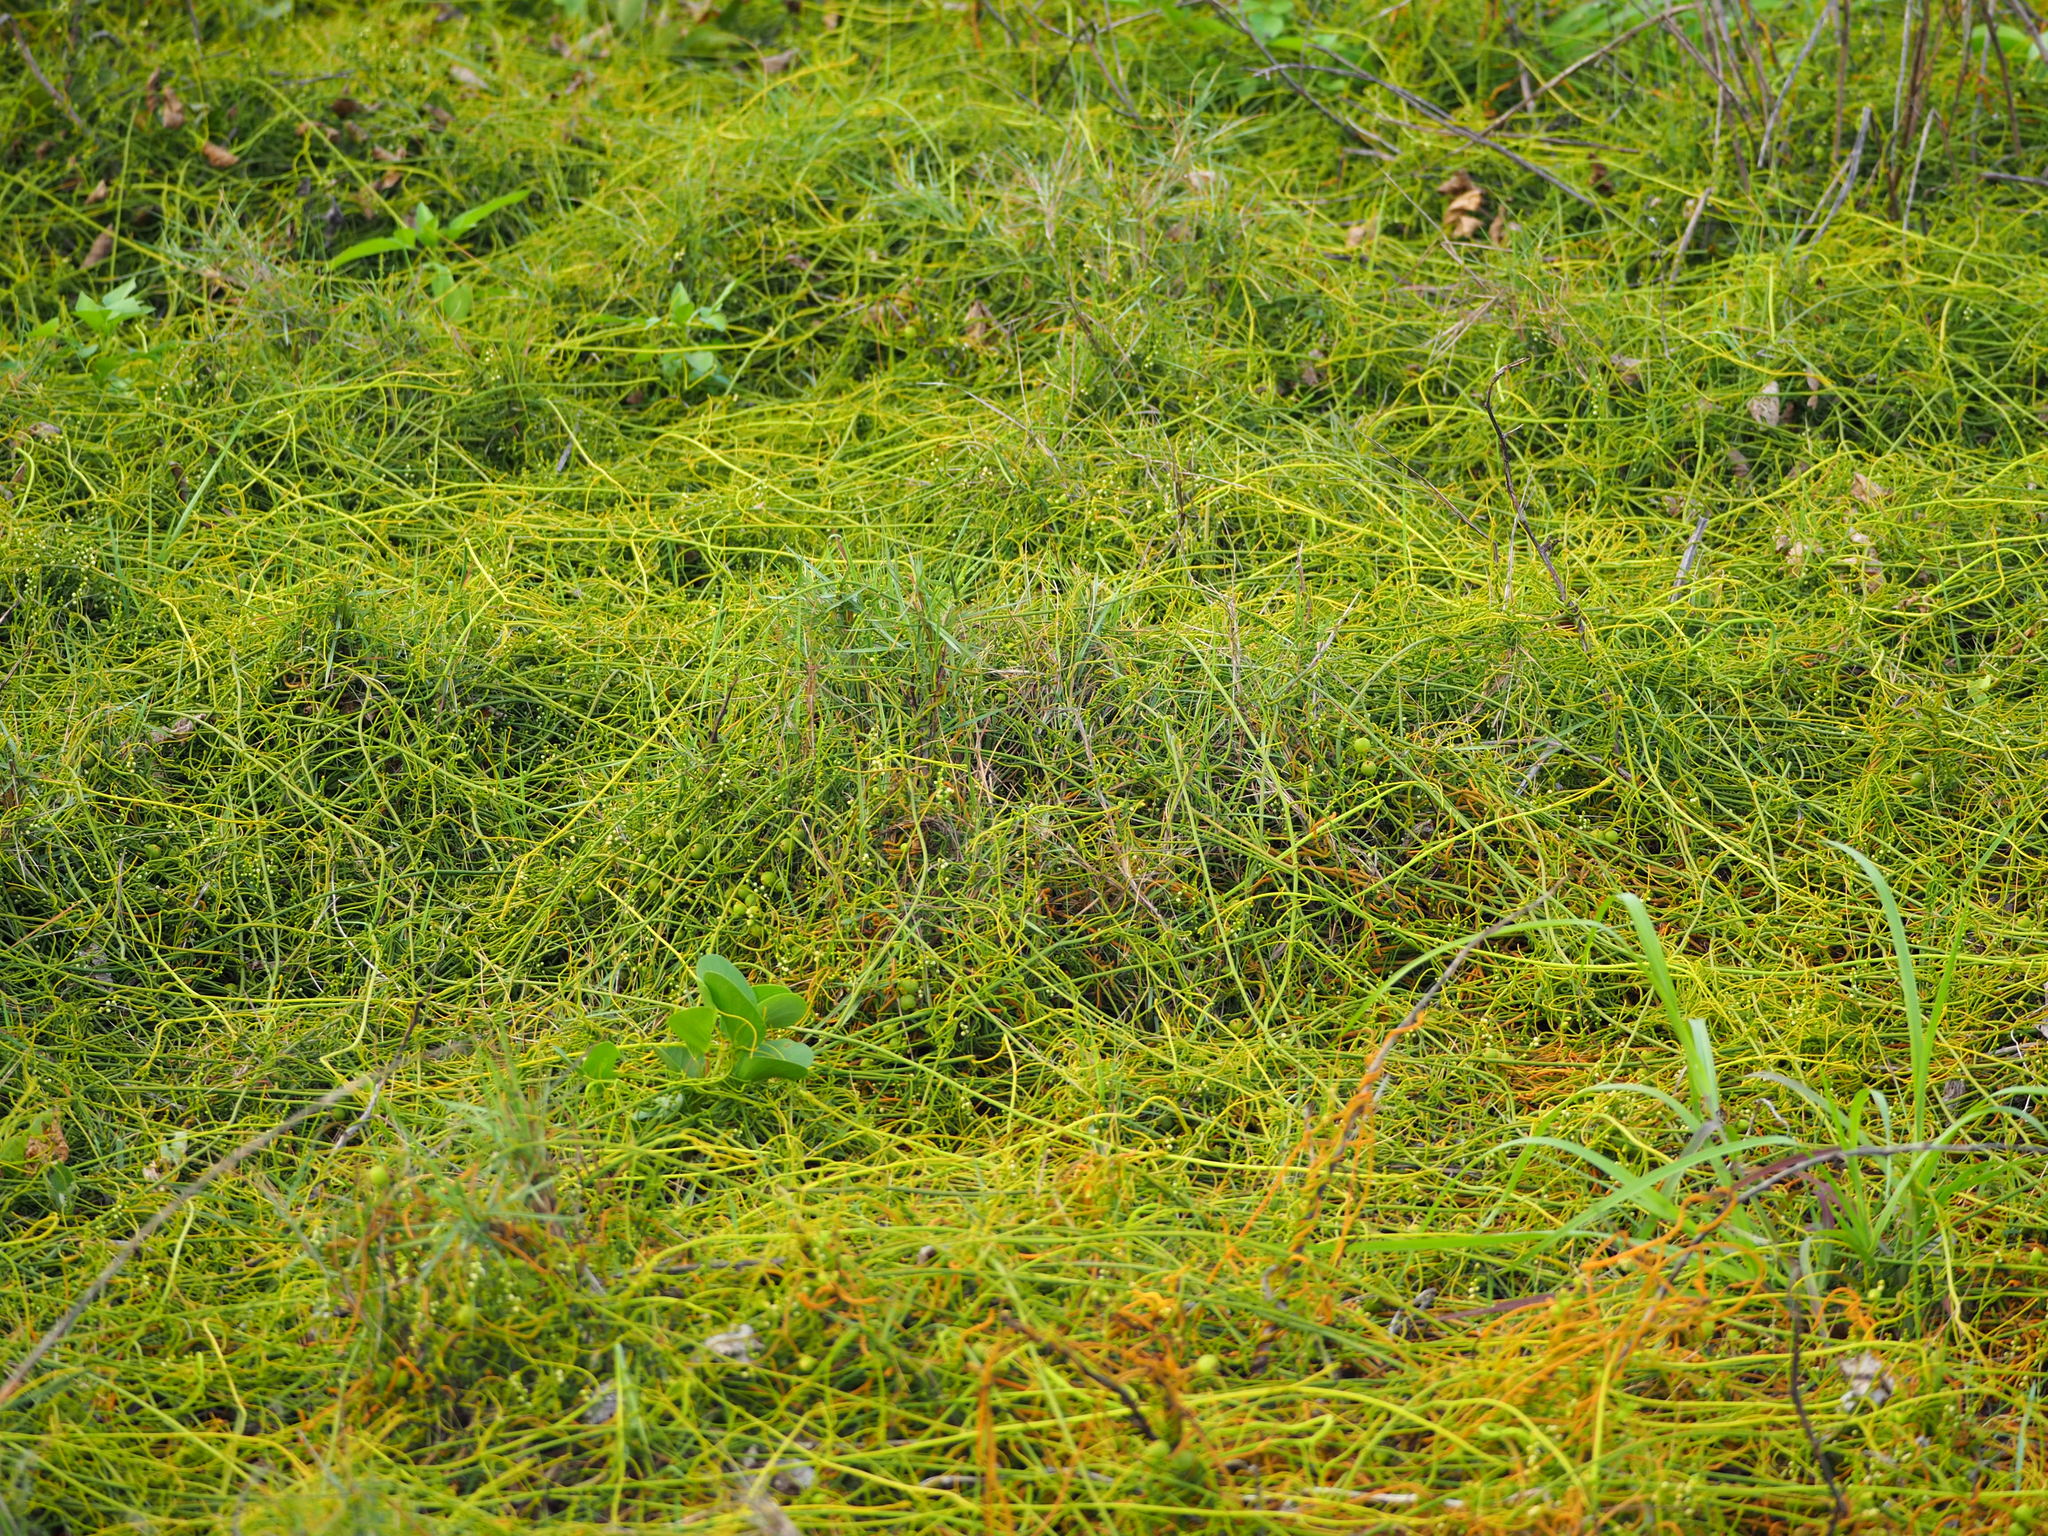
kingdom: Plantae
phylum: Tracheophyta
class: Magnoliopsida
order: Laurales
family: Lauraceae
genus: Cassytha
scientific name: Cassytha filiformis
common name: Dodder-laurel
